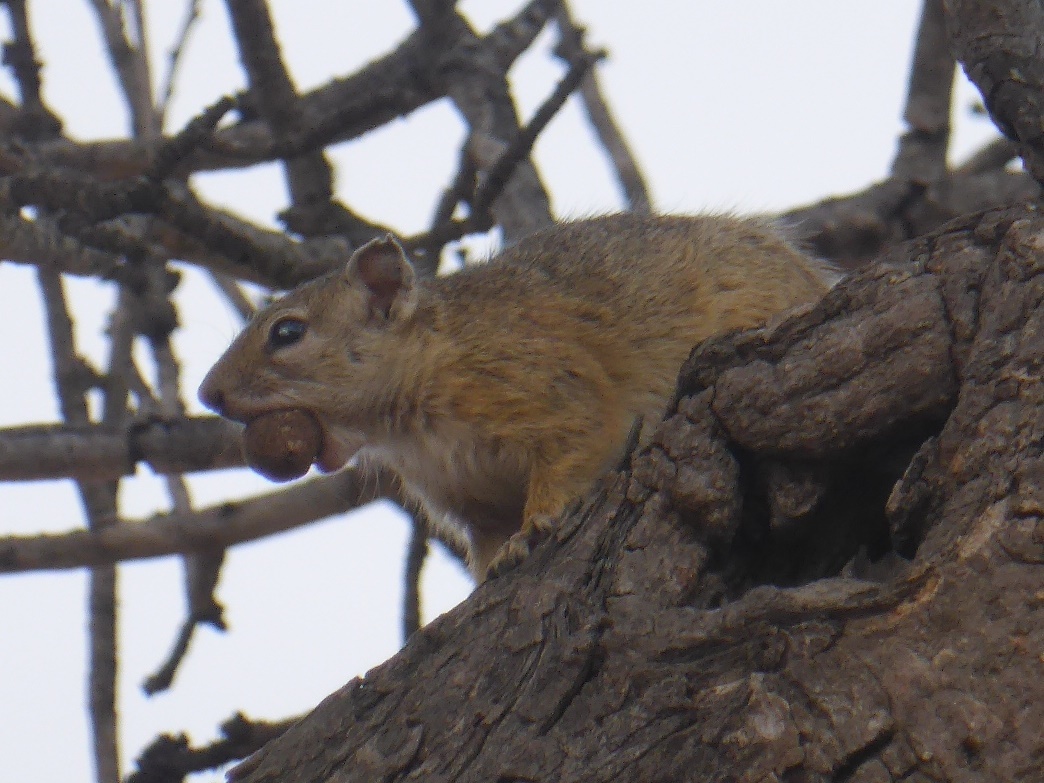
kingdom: Animalia
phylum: Chordata
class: Mammalia
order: Rodentia
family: Sciuridae
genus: Paraxerus
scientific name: Paraxerus cepapi
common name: Smith's bush squirrel
